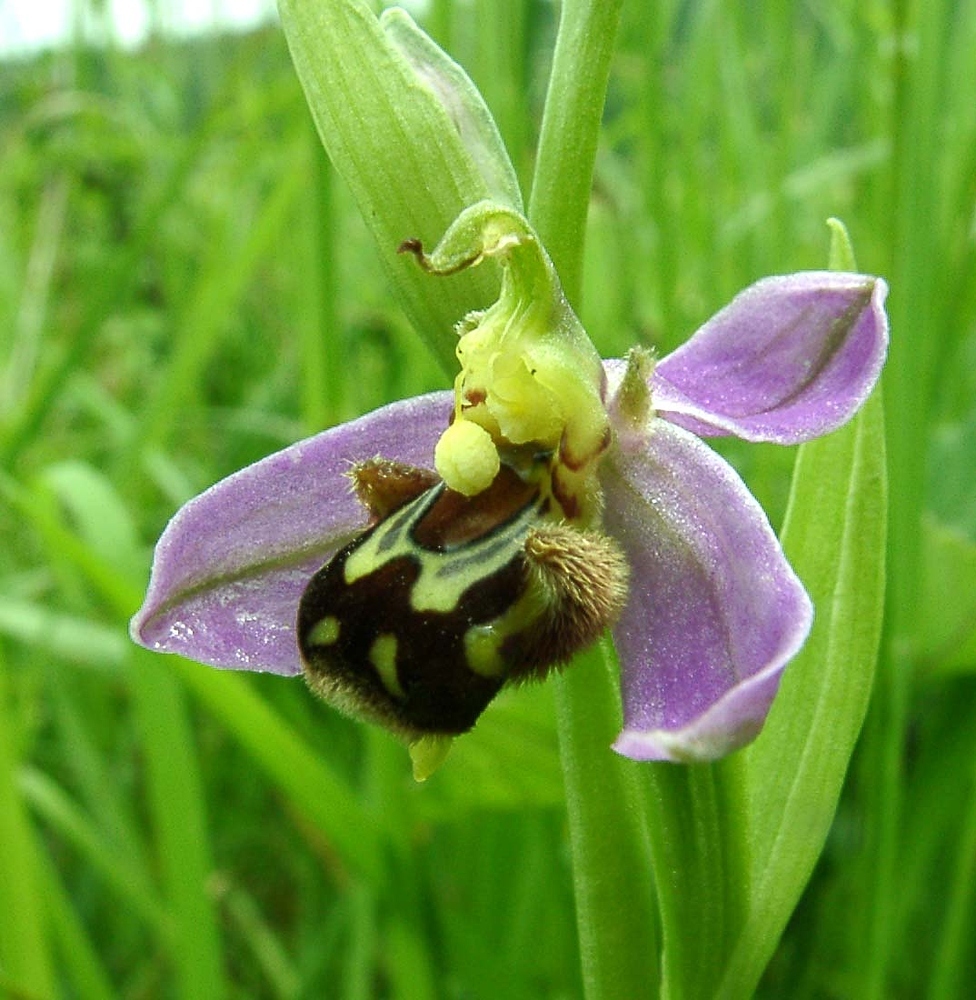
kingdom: Plantae
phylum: Tracheophyta
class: Liliopsida
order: Asparagales
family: Orchidaceae
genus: Ophrys
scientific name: Ophrys apifera
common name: Bee orchid
